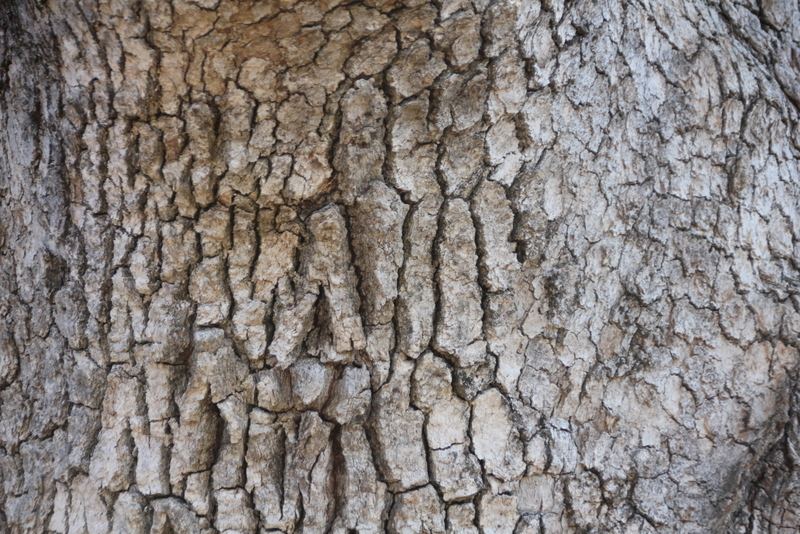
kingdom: Plantae
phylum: Tracheophyta
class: Magnoliopsida
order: Fagales
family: Fagaceae
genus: Quercus
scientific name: Quercus garryana
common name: Garry oak
